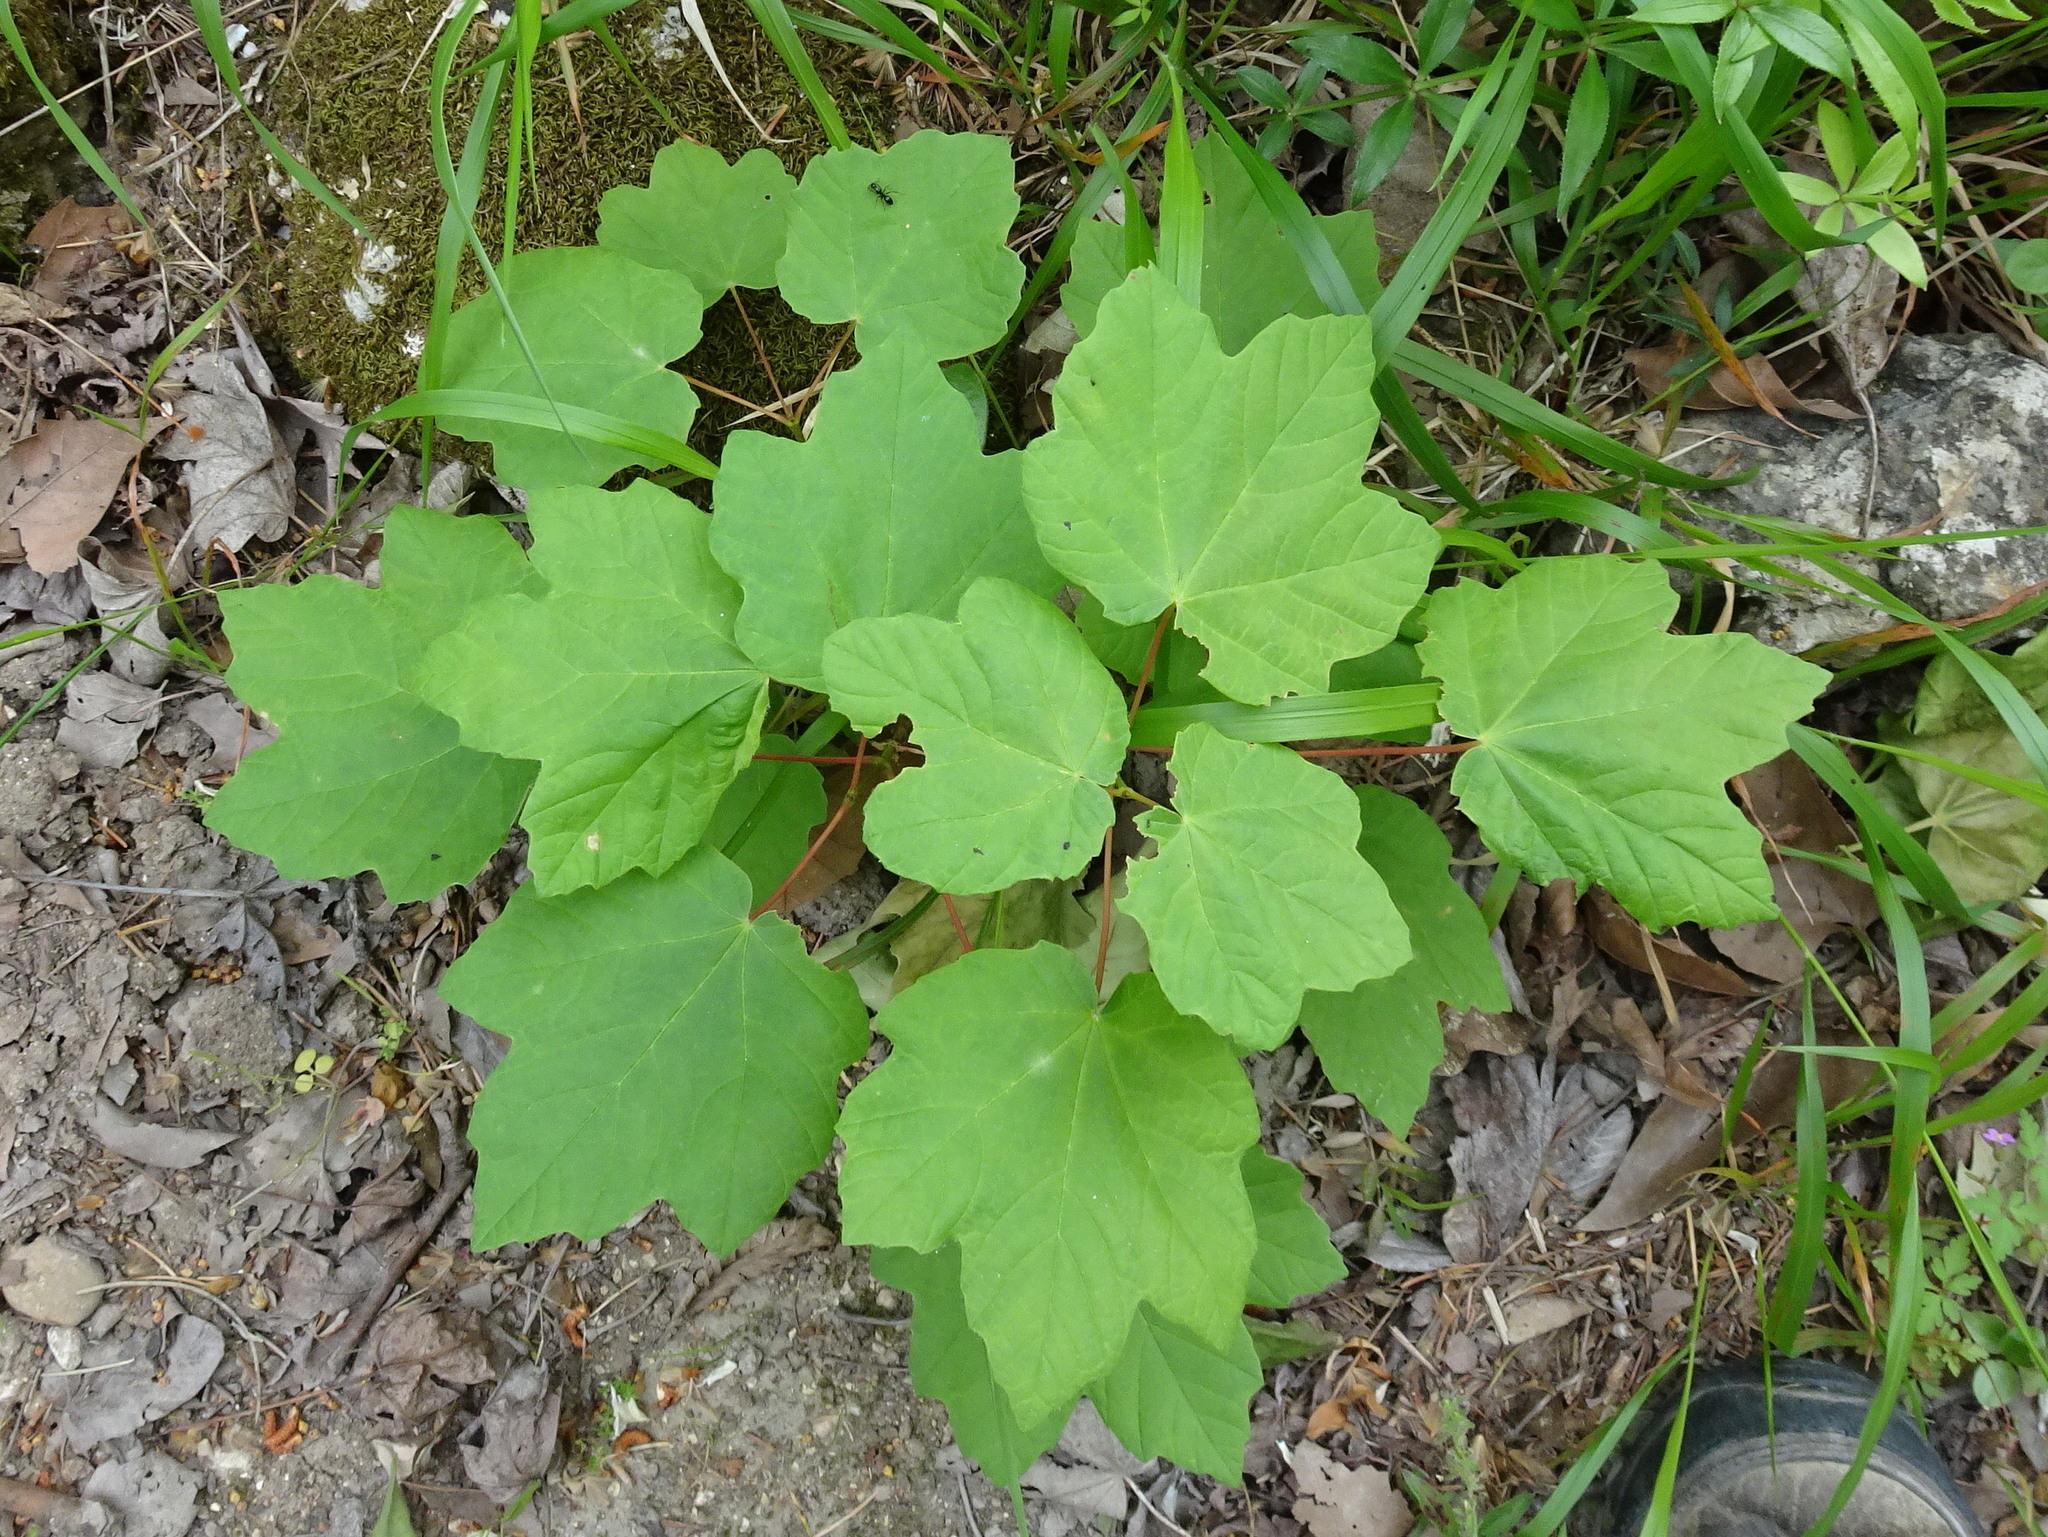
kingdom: Plantae
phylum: Tracheophyta
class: Magnoliopsida
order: Sapindales
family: Sapindaceae
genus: Acer
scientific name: Acer pseudoplatanus
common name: Sycamore
